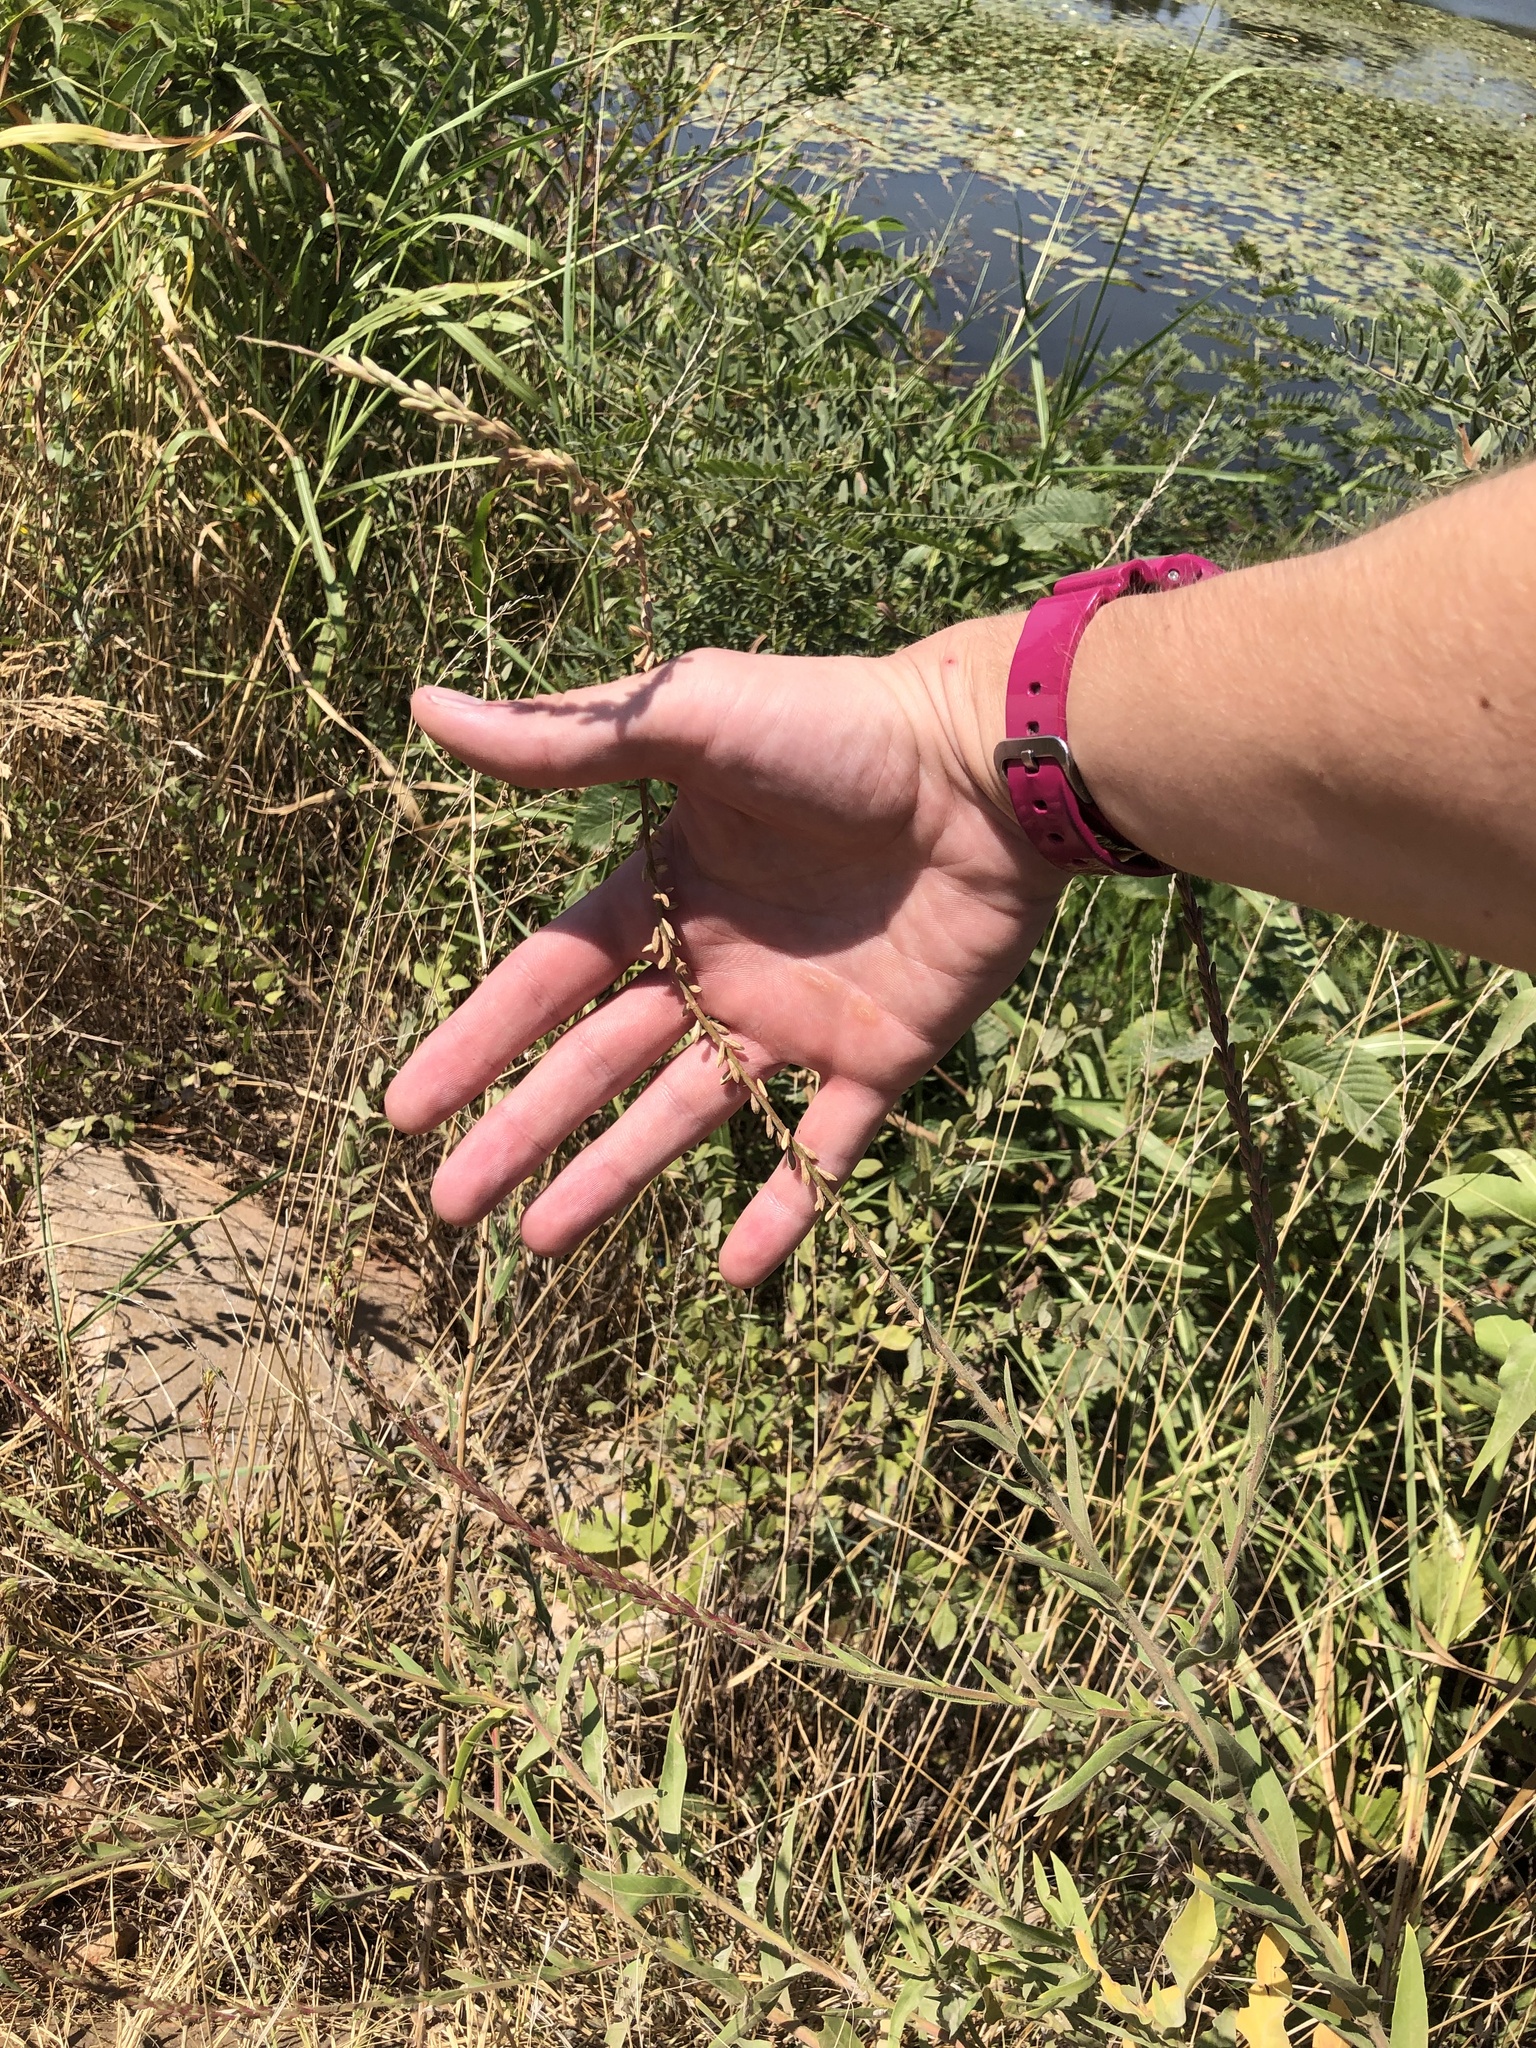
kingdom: Plantae
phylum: Tracheophyta
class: Magnoliopsida
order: Myrtales
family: Onagraceae
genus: Oenothera
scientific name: Oenothera curtiflora
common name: Velvetweed
